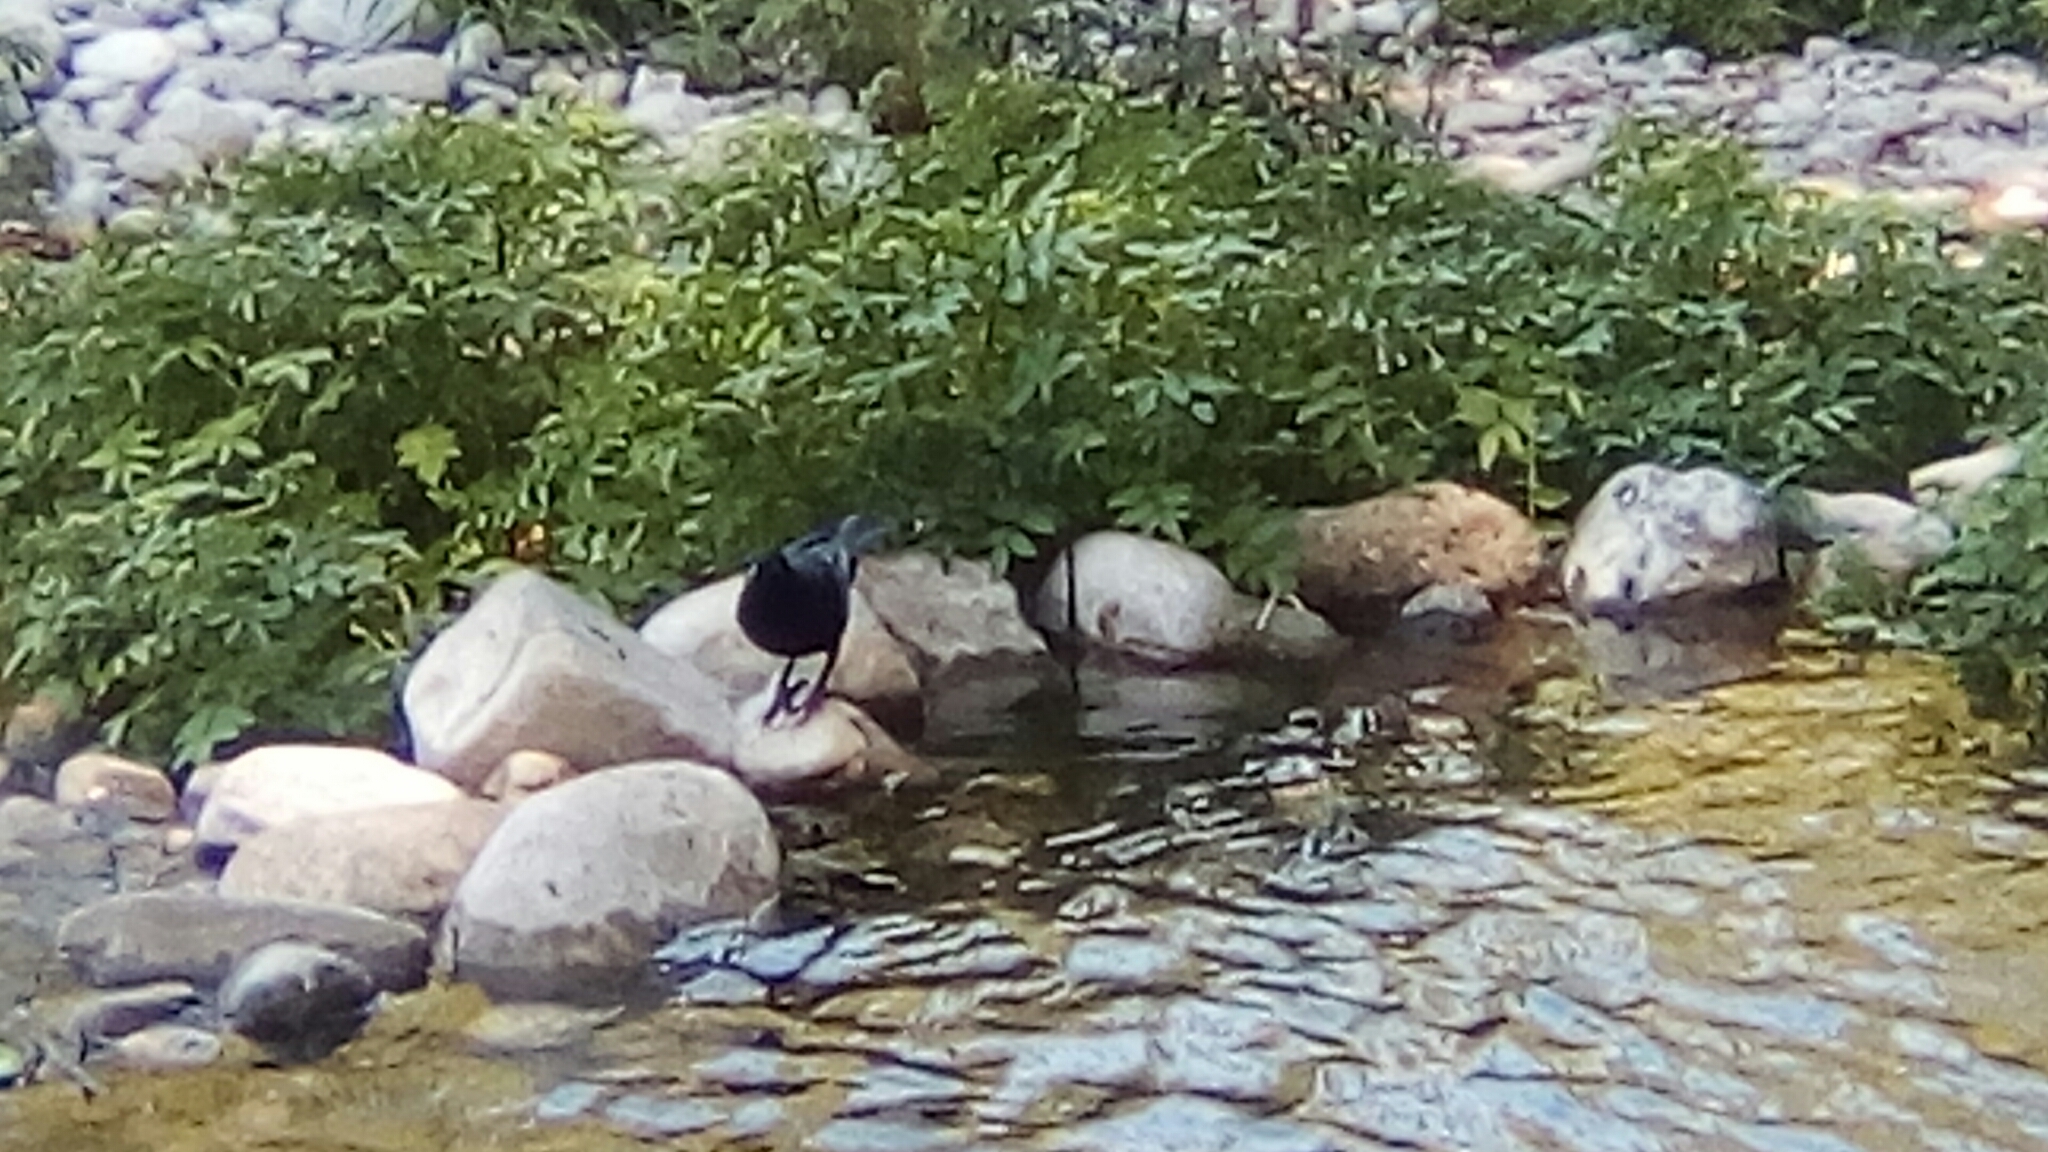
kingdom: Animalia
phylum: Chordata
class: Aves
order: Passeriformes
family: Icteridae
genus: Quiscalus
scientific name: Quiscalus mexicanus
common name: Great-tailed grackle
